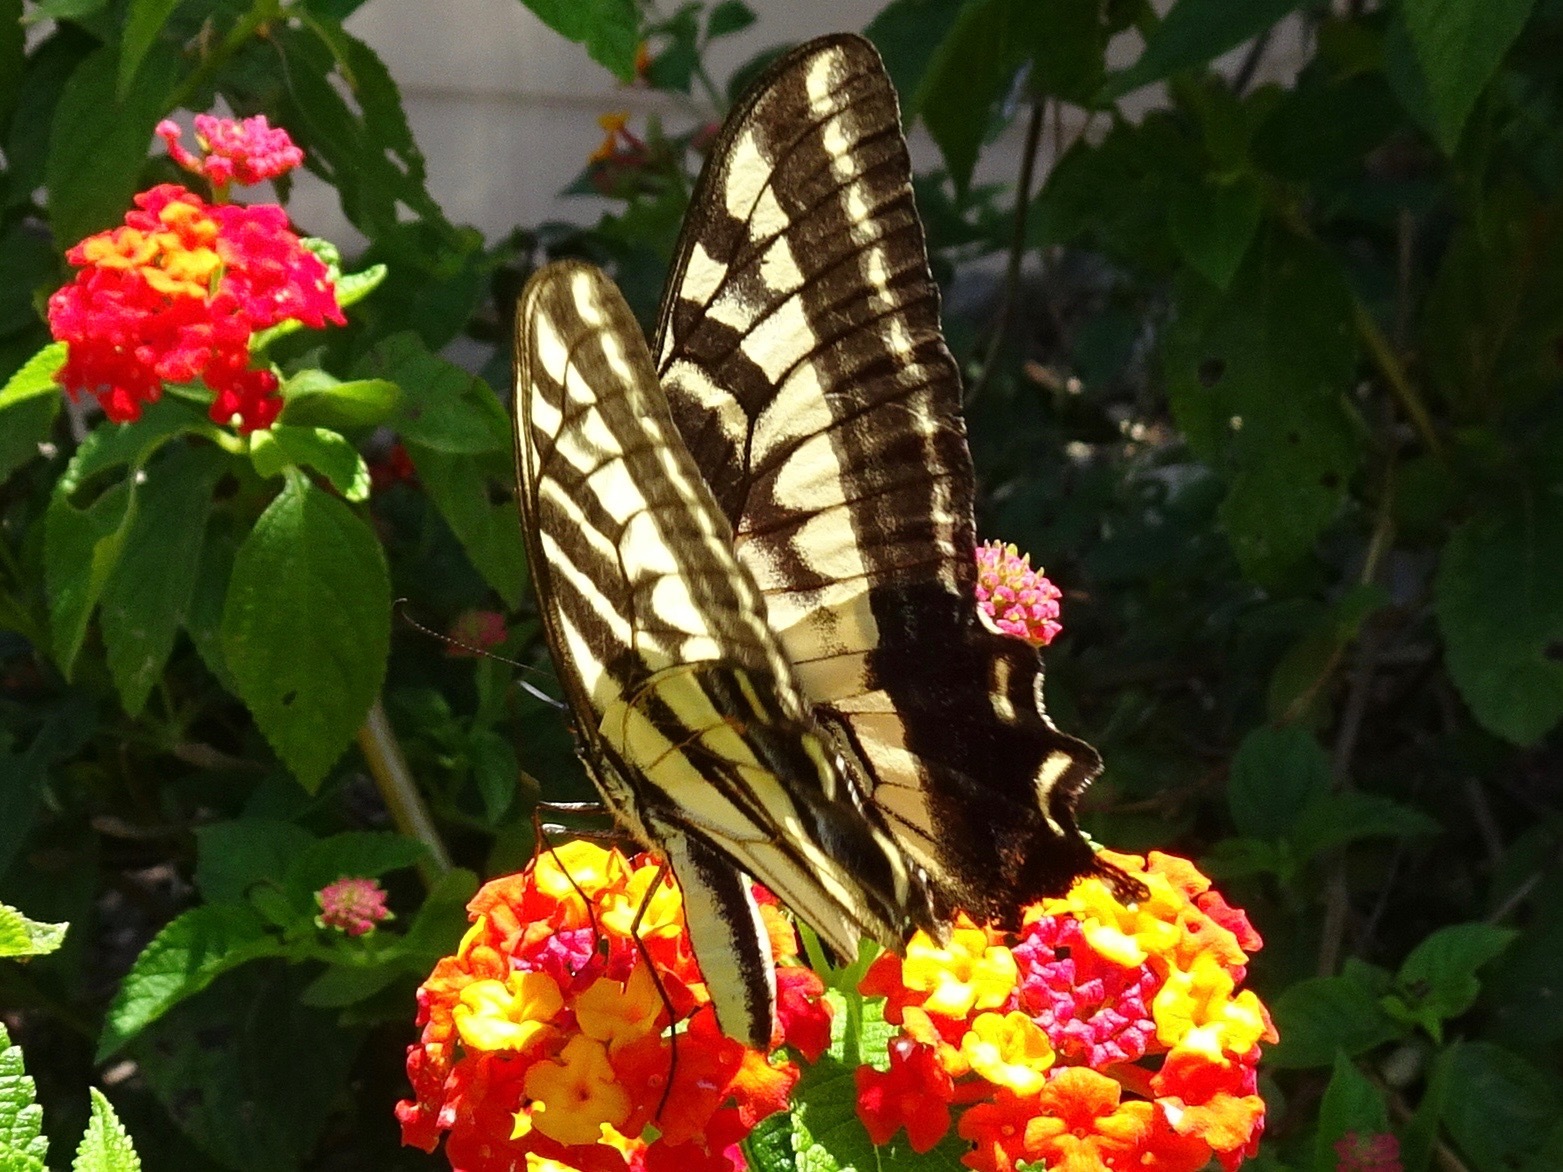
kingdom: Animalia
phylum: Arthropoda
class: Insecta
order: Lepidoptera
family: Papilionidae
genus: Papilio
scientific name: Papilio eurymedon
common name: Pale tiger swallowtail
